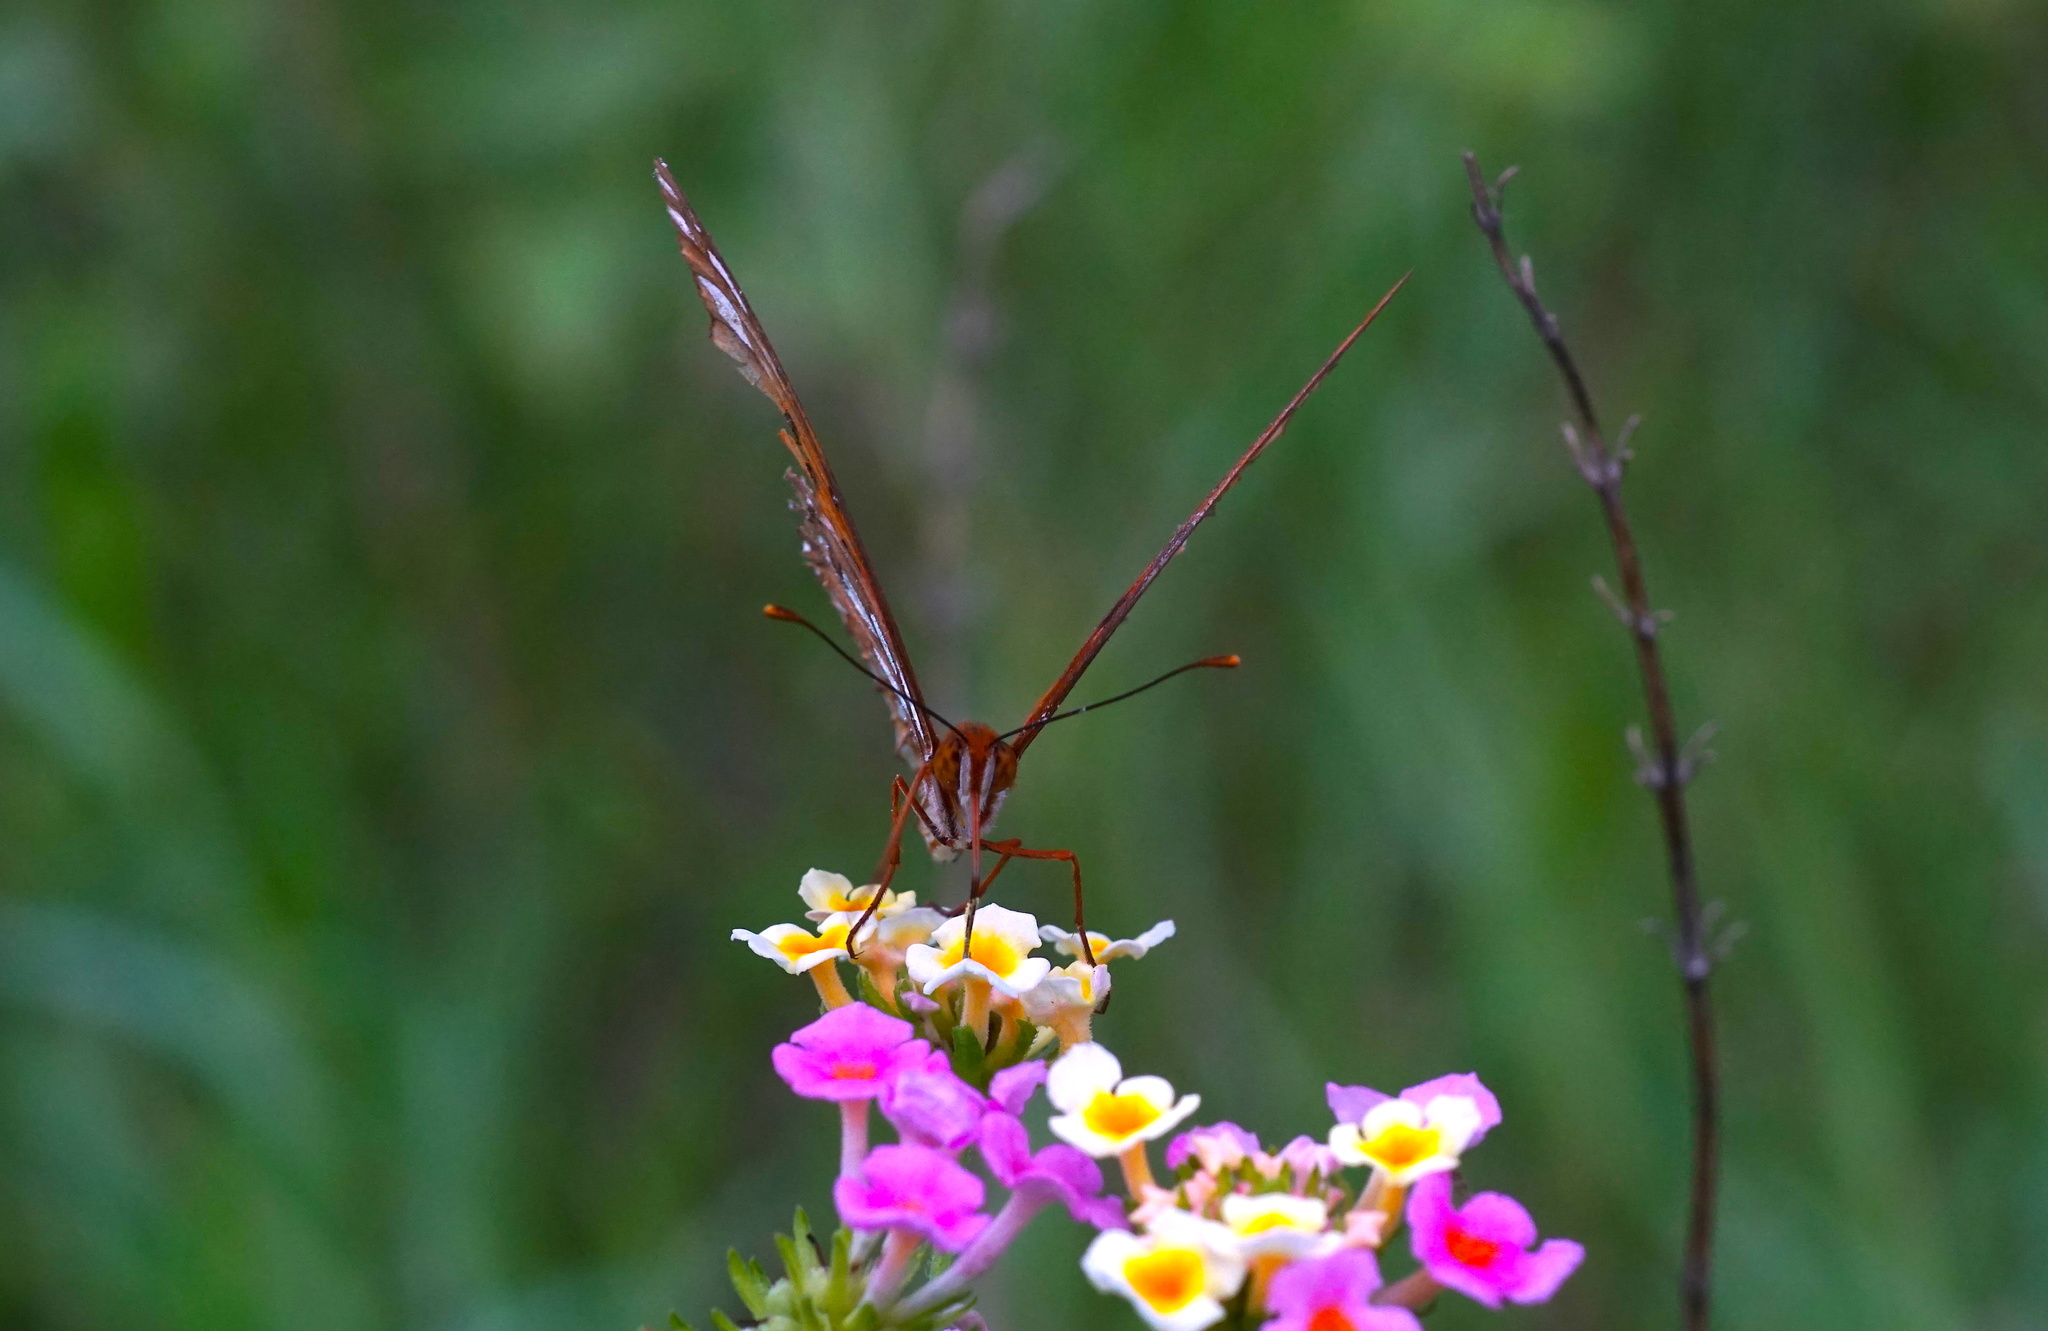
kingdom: Animalia
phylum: Arthropoda
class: Insecta
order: Lepidoptera
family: Nymphalidae
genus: Dione
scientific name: Dione vanillae
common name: Gulf fritillary
